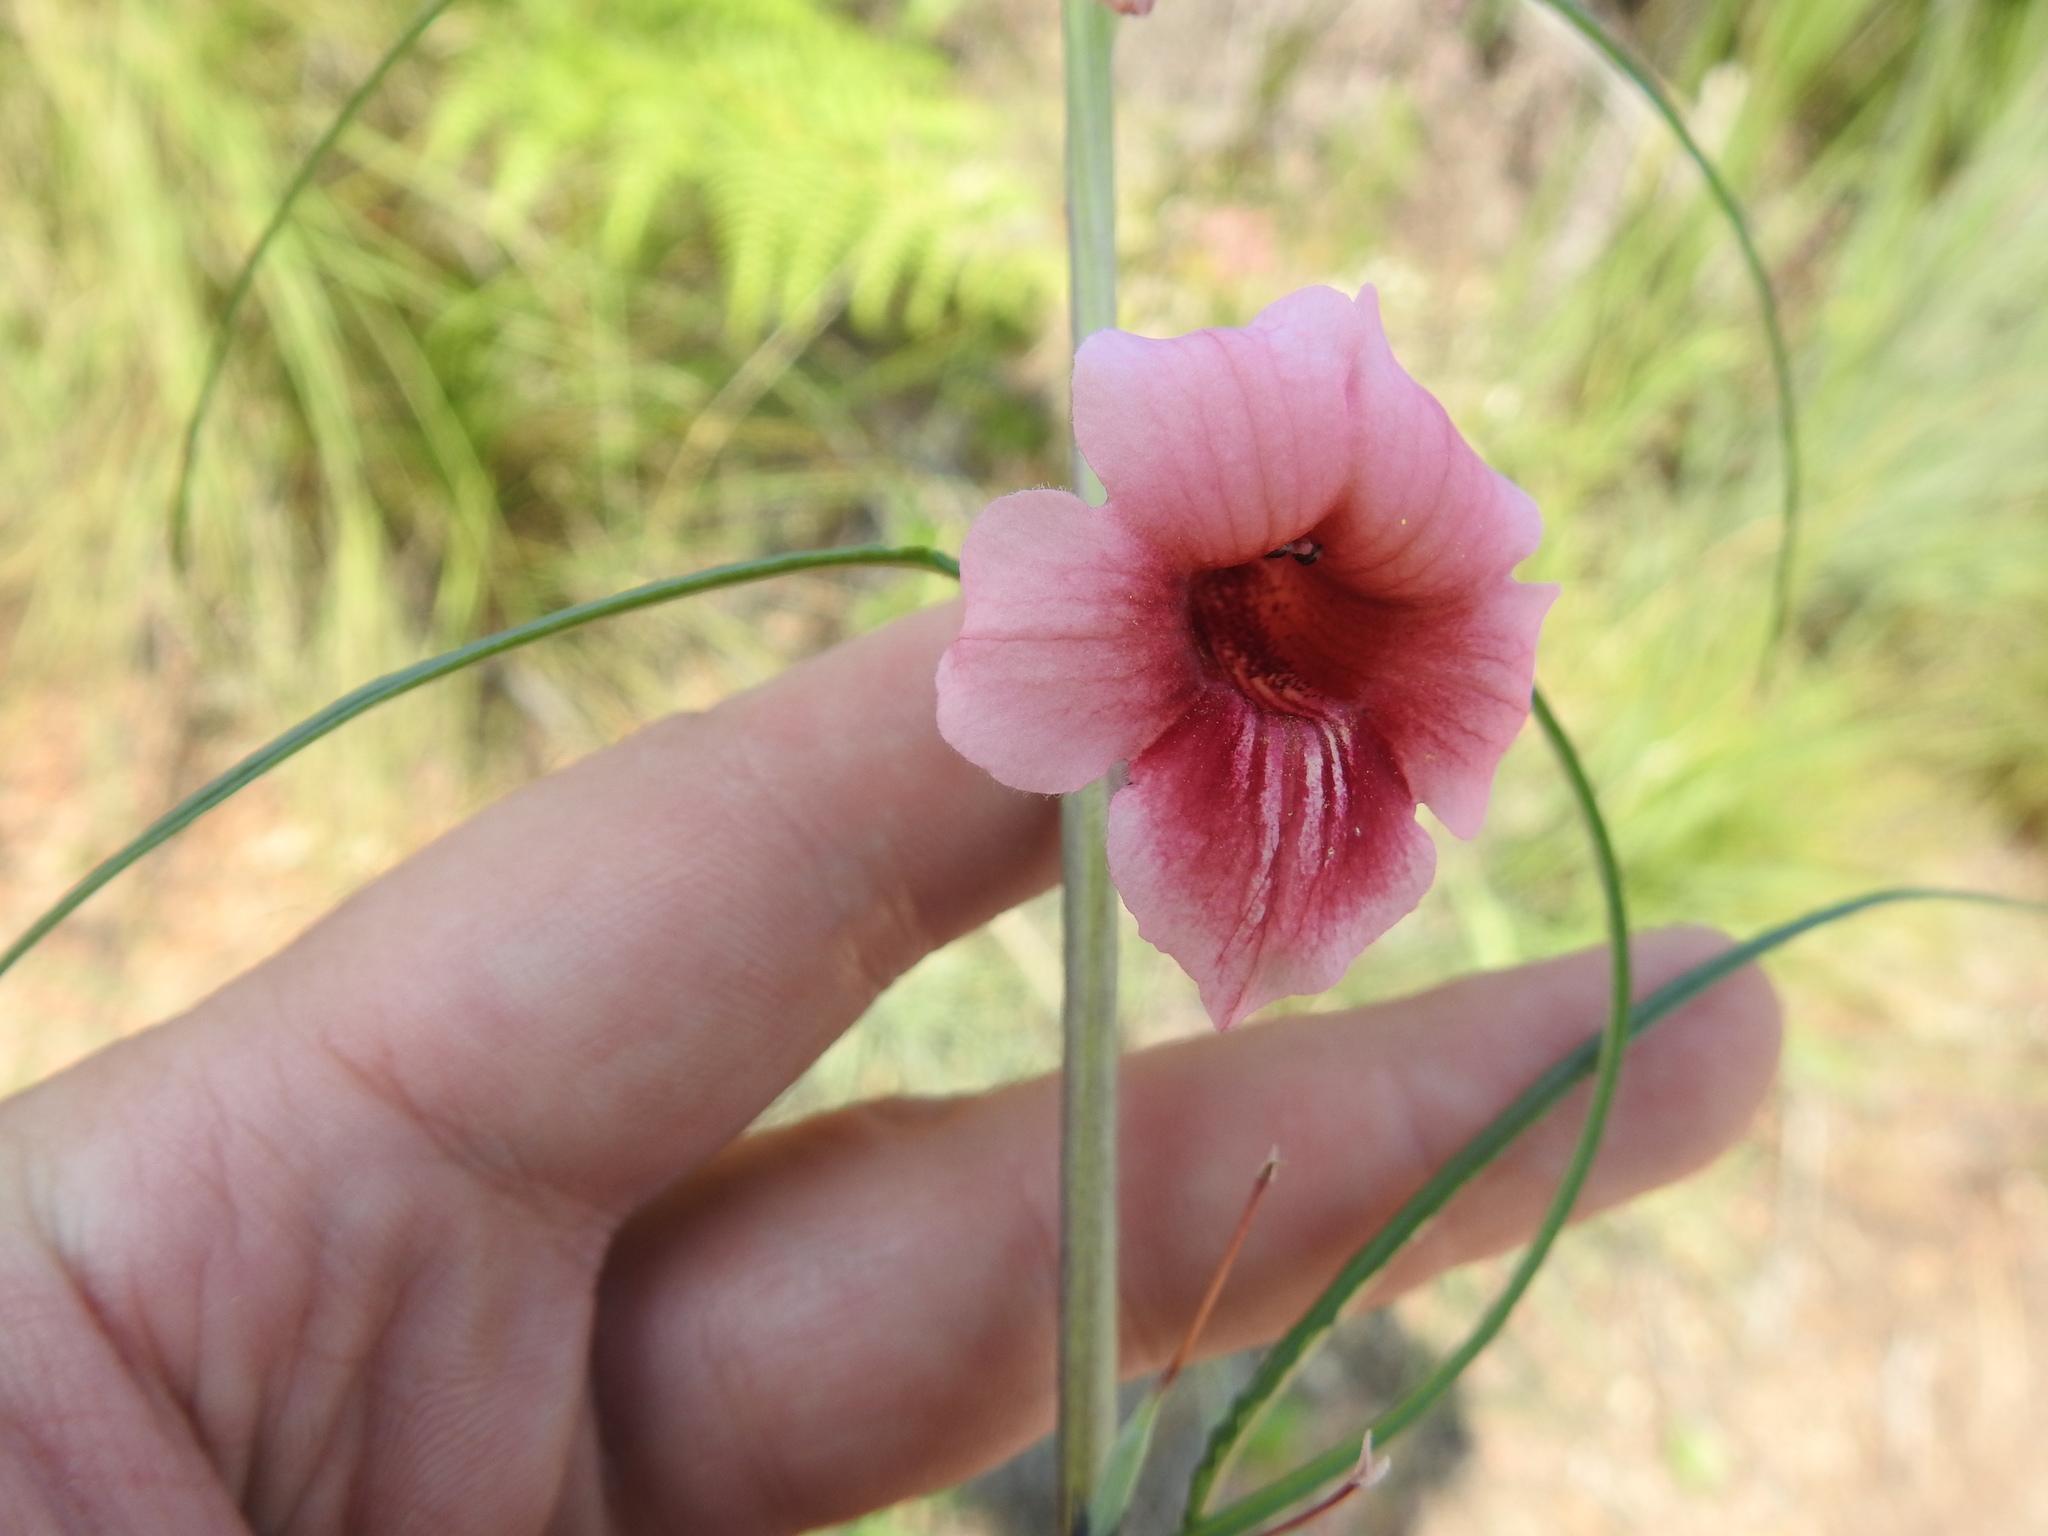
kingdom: Plantae
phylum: Tracheophyta
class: Magnoliopsida
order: Lamiales
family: Pedaliaceae
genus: Sesamum
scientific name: Sesamum triphyllum
